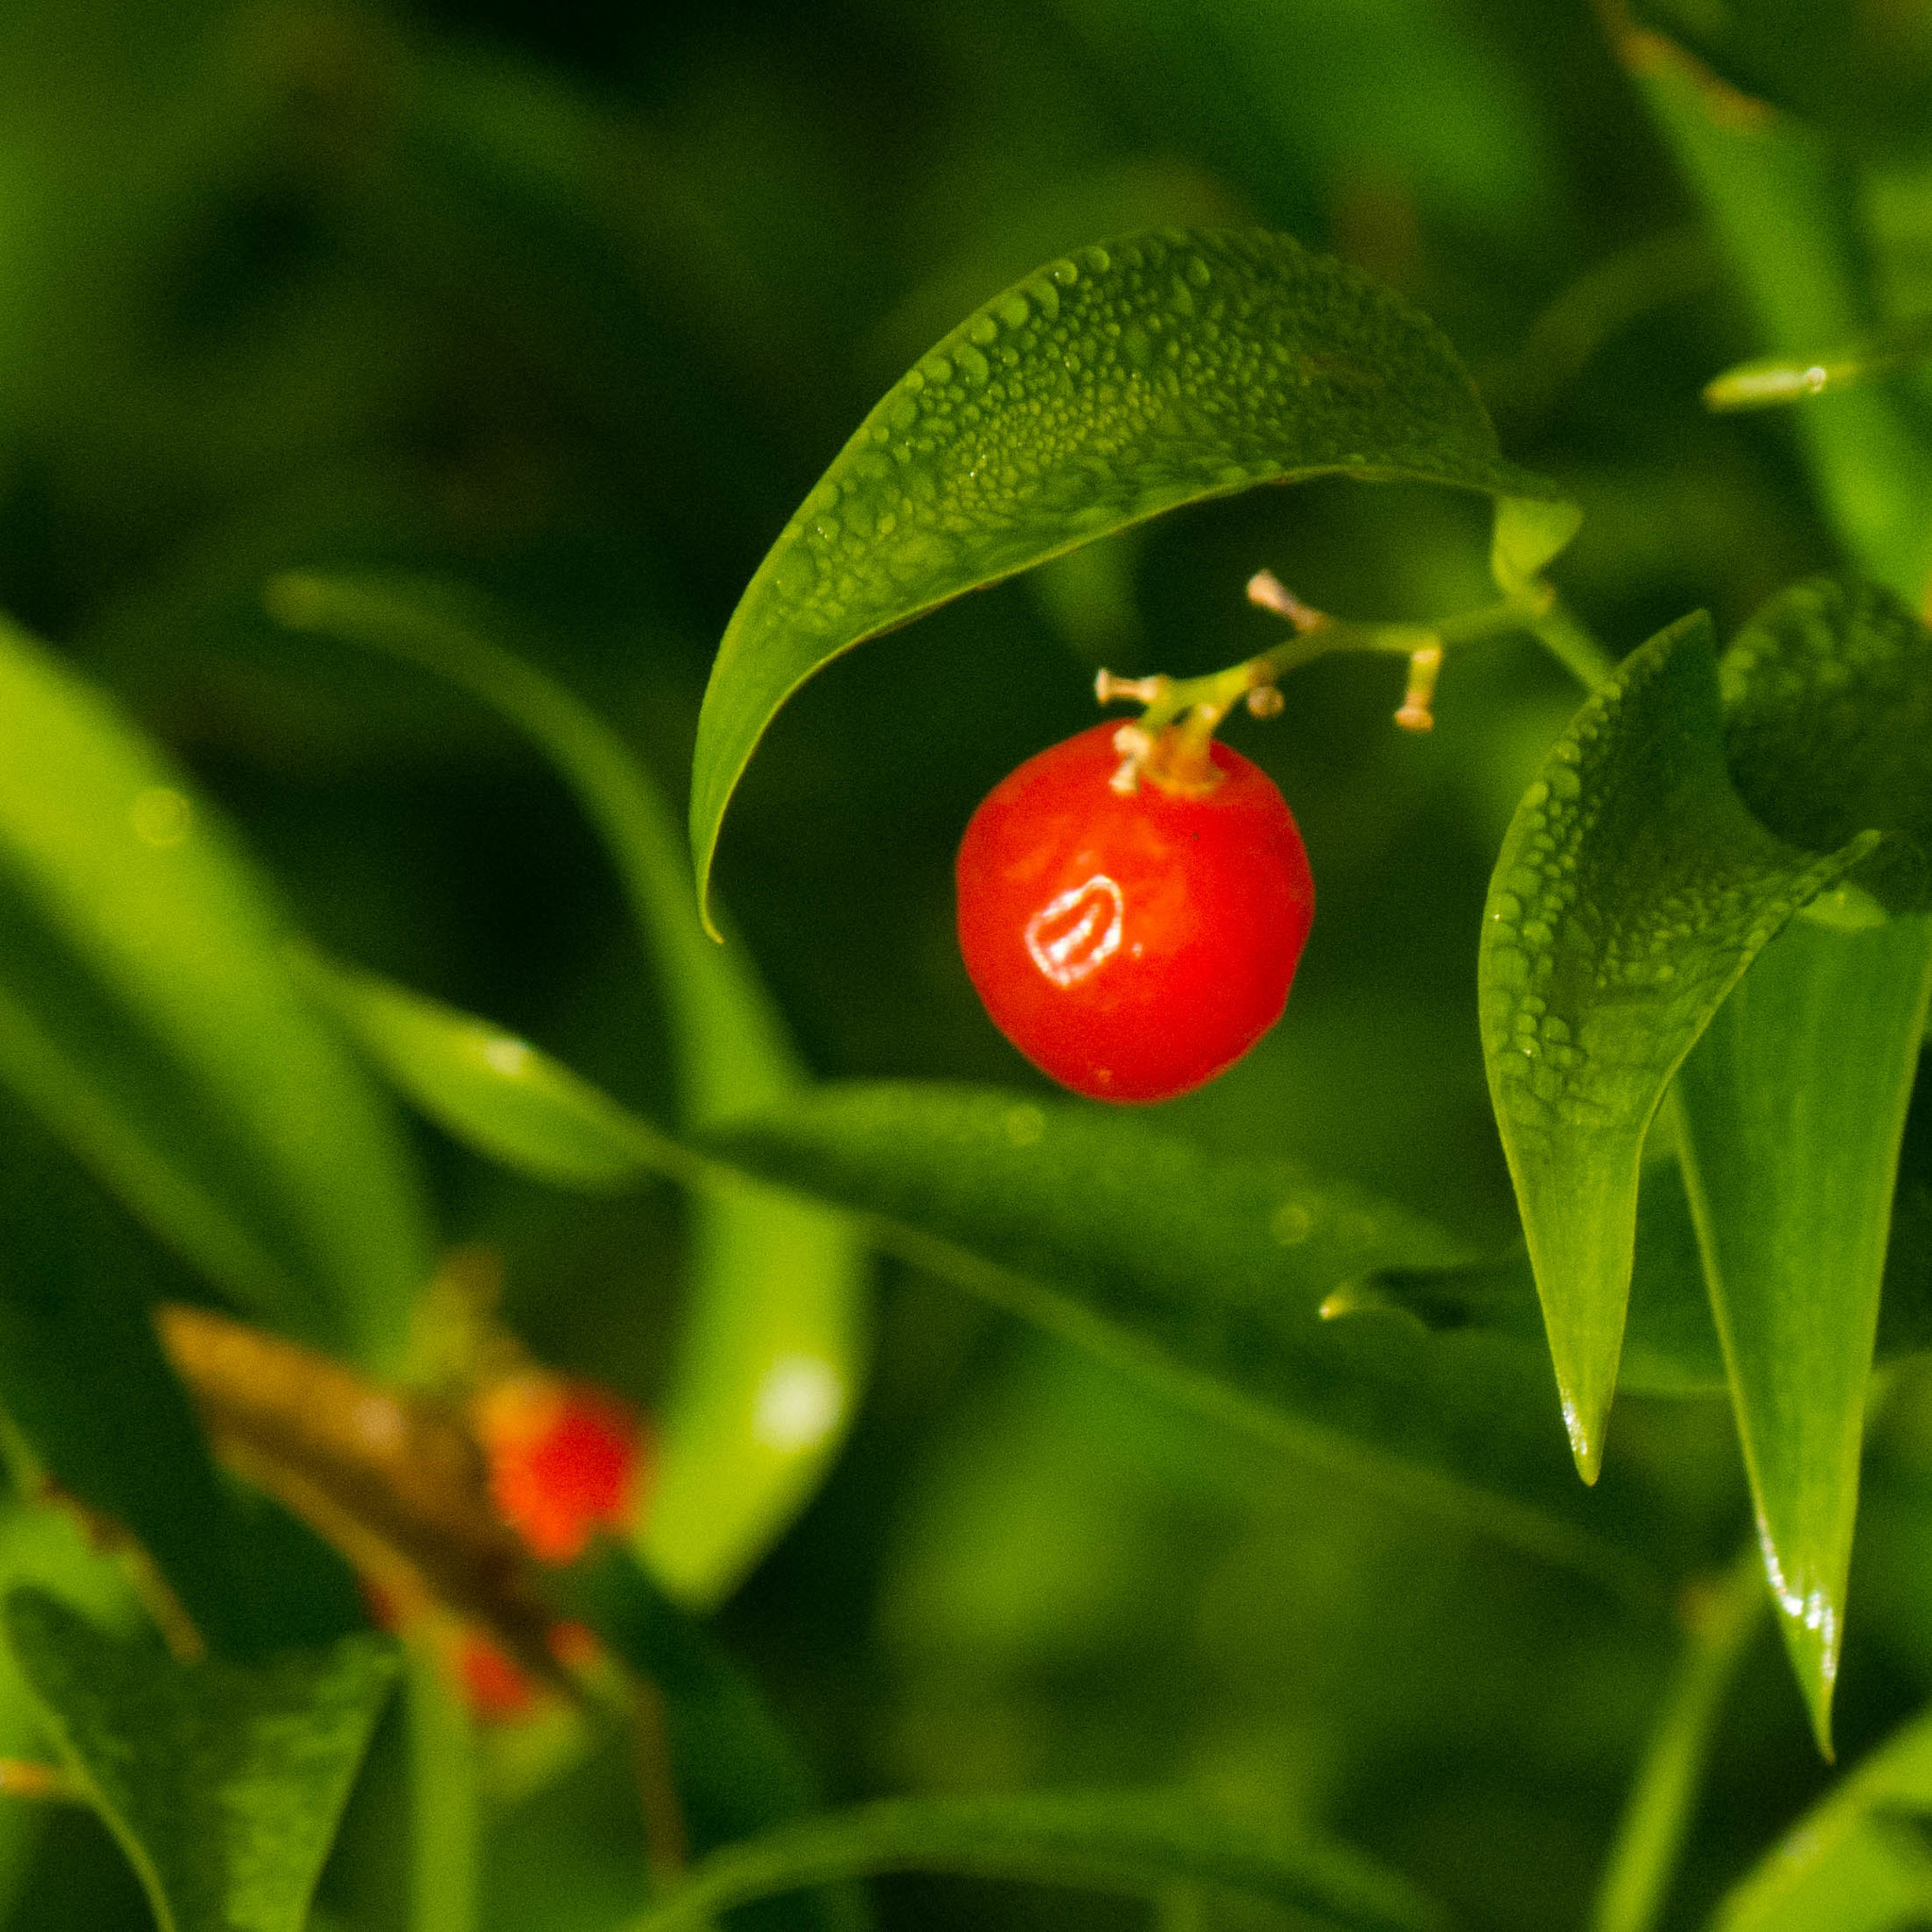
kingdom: Plantae
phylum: Tracheophyta
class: Liliopsida
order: Asparagales
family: Asparagaceae
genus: Danae
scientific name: Danae racemosa
